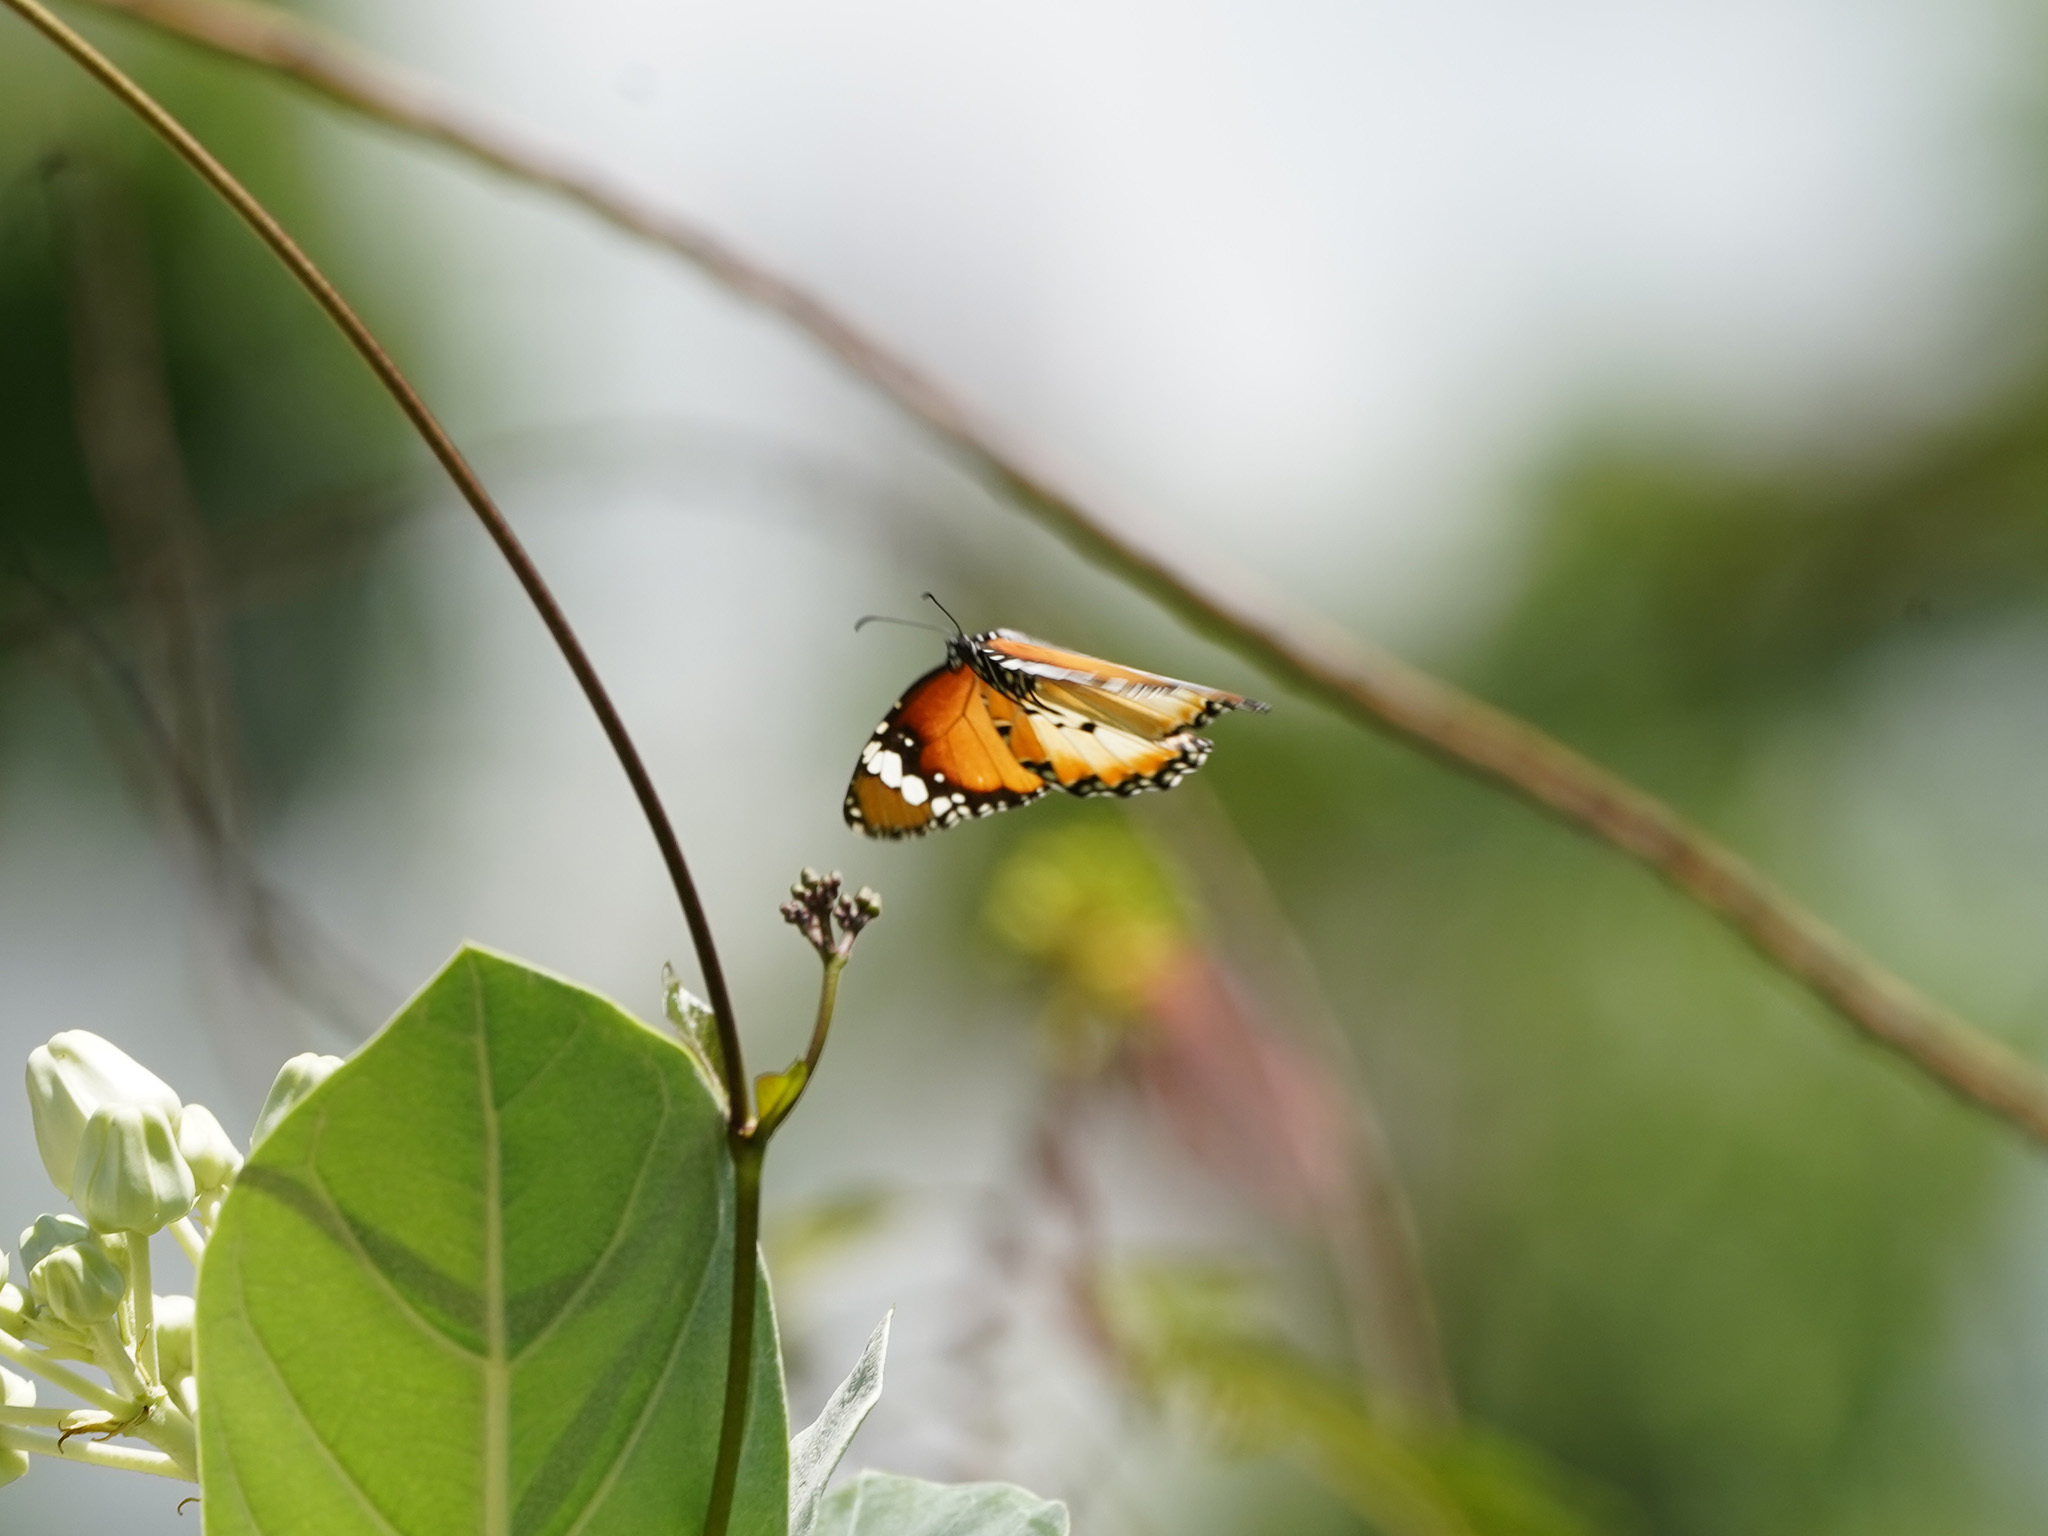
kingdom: Animalia
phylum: Arthropoda
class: Insecta
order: Lepidoptera
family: Nymphalidae
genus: Danaus
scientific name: Danaus chrysippus
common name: Plain tiger
